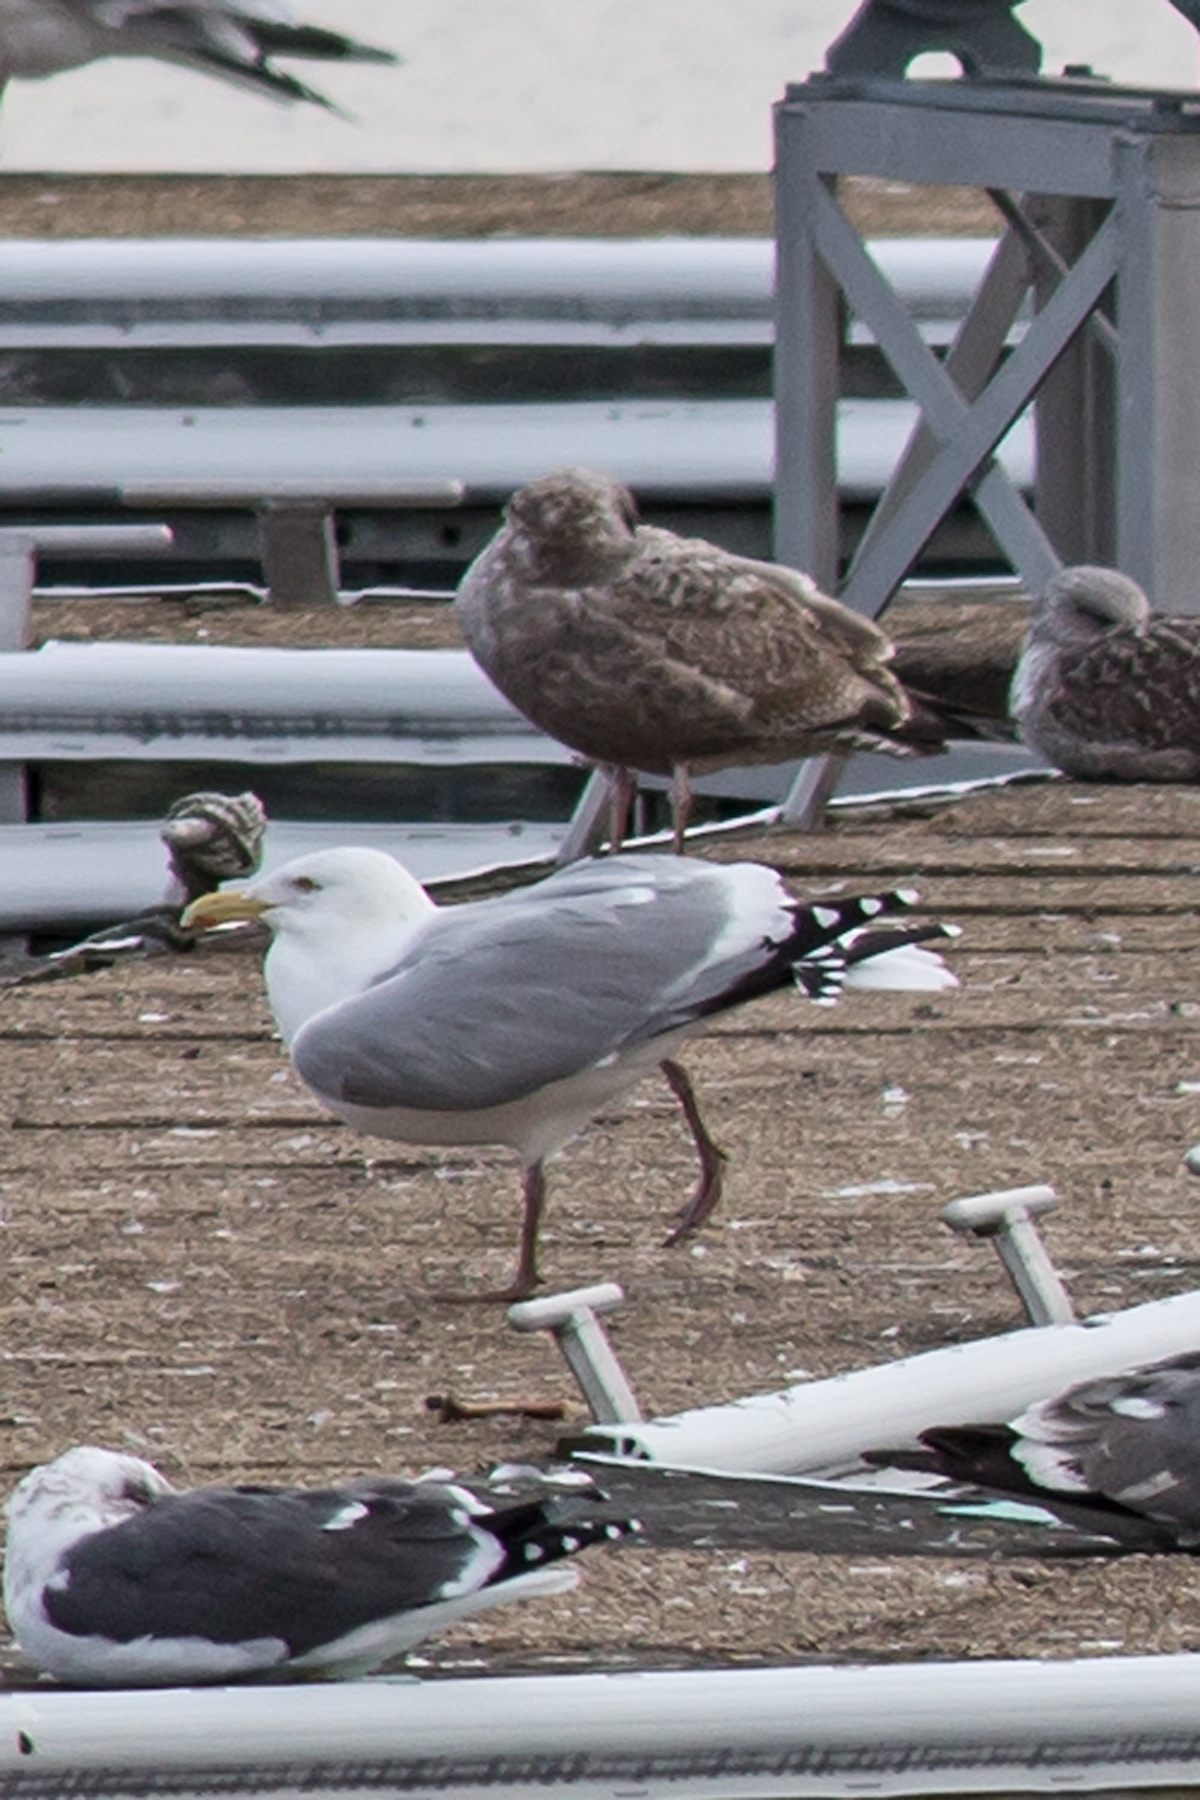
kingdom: Animalia
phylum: Chordata
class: Aves
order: Charadriiformes
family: Laridae
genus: Larus
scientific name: Larus argentatus
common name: Herring gull
